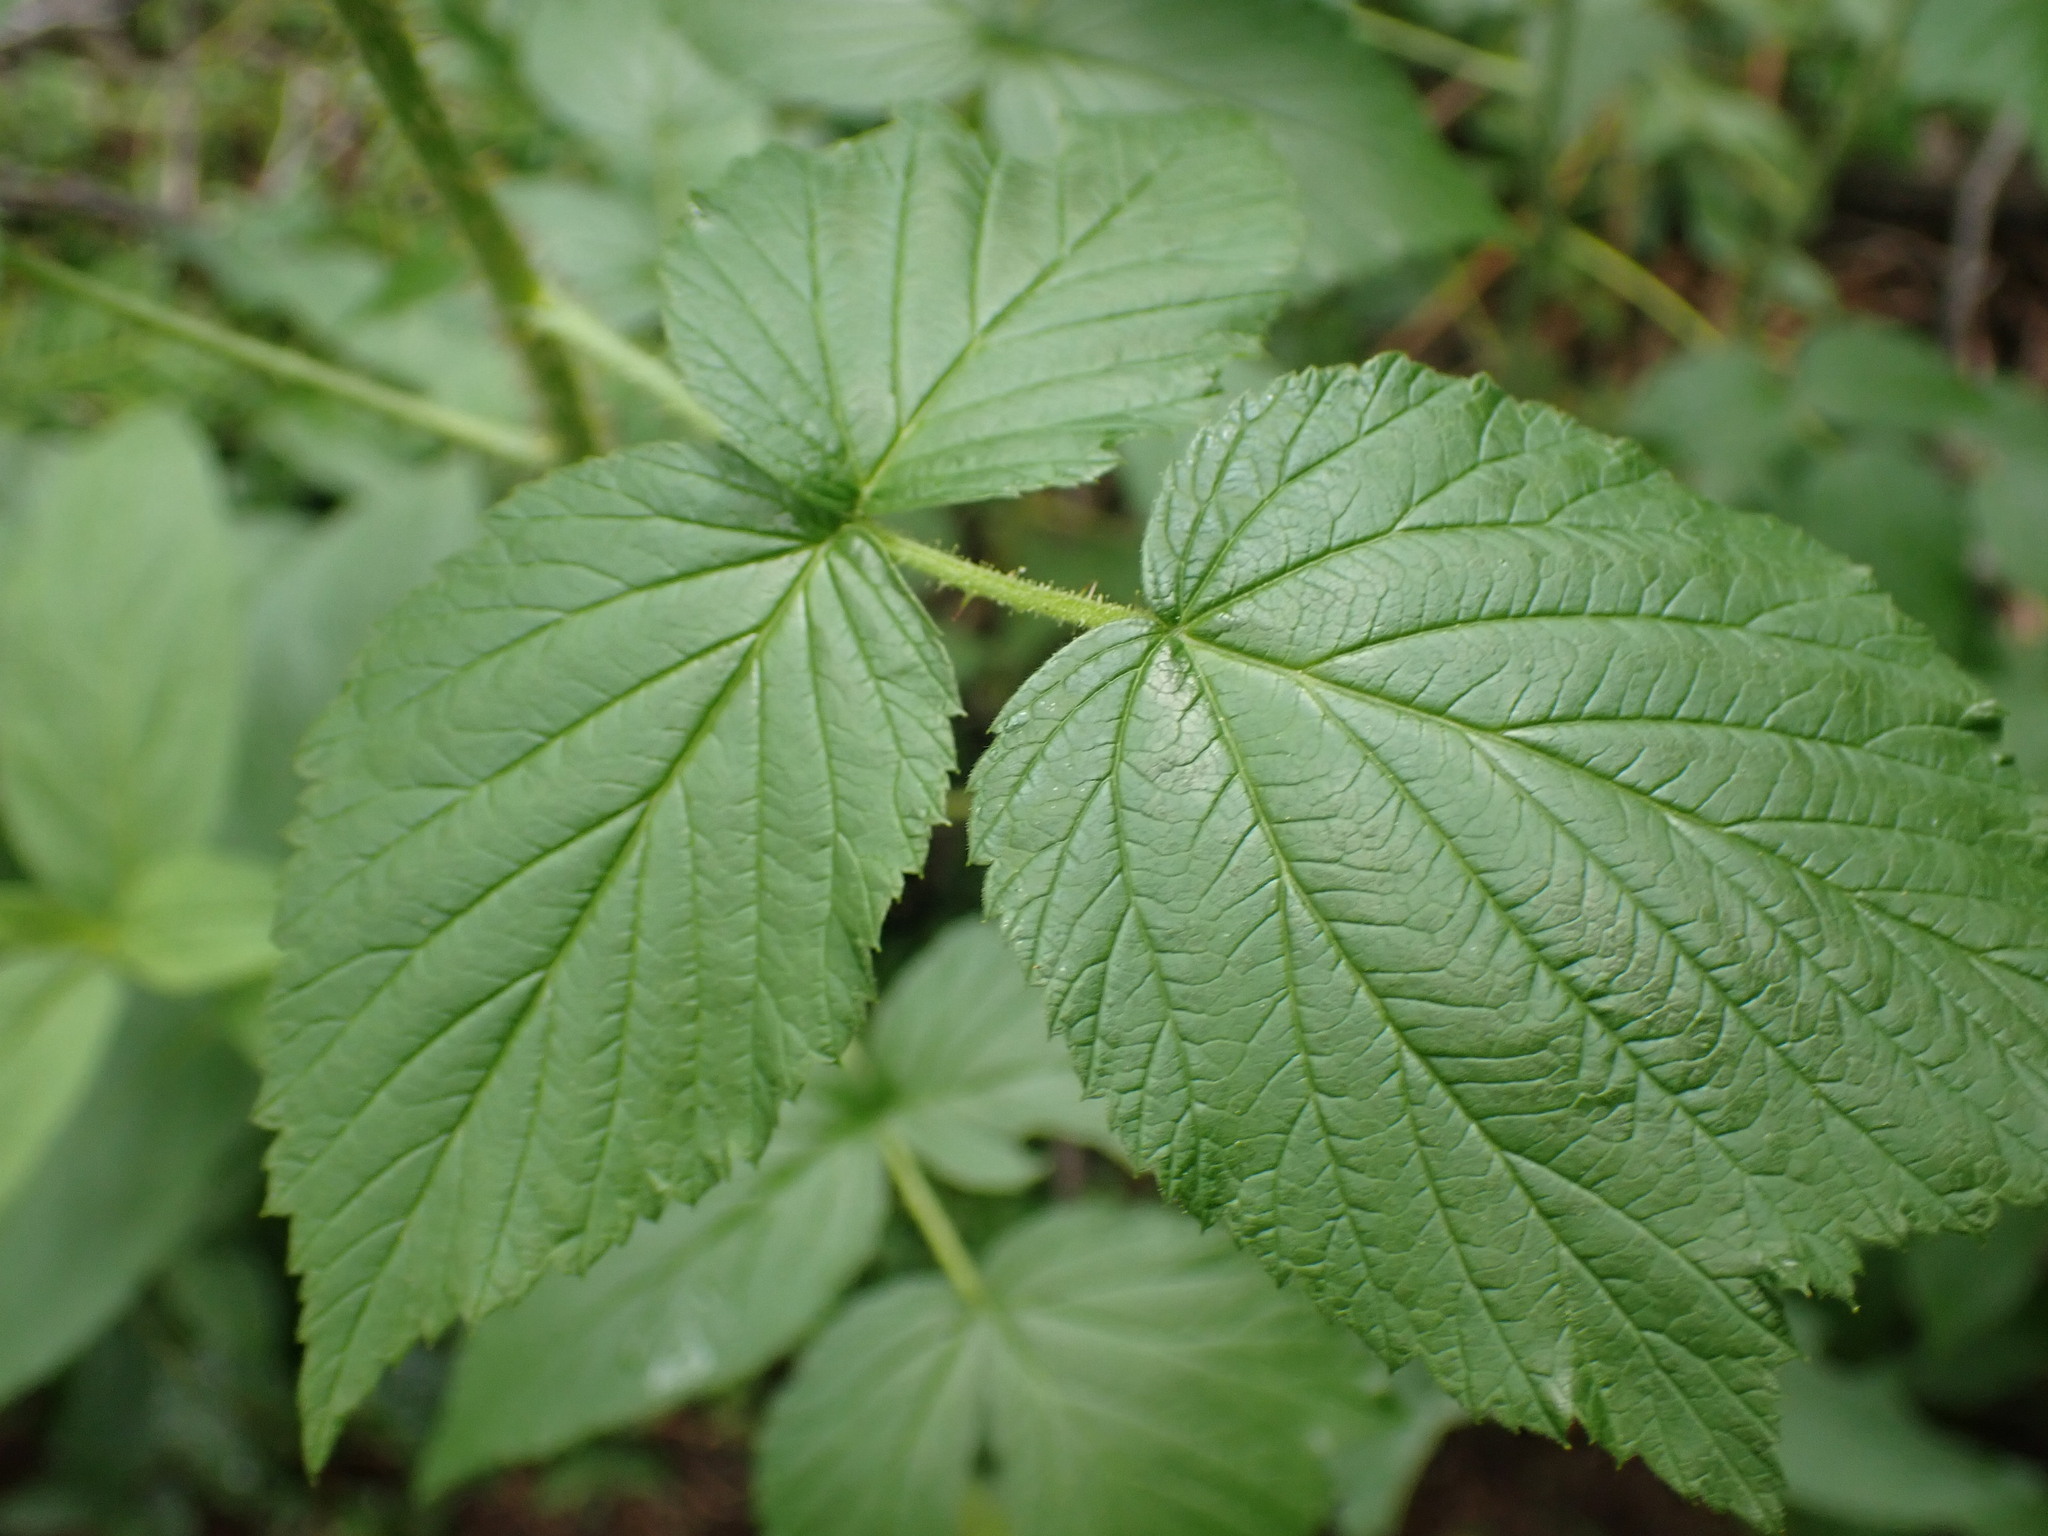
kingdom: Plantae
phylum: Tracheophyta
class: Magnoliopsida
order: Rosales
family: Rosaceae
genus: Rubus
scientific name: Rubus idaeus
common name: Raspberry
